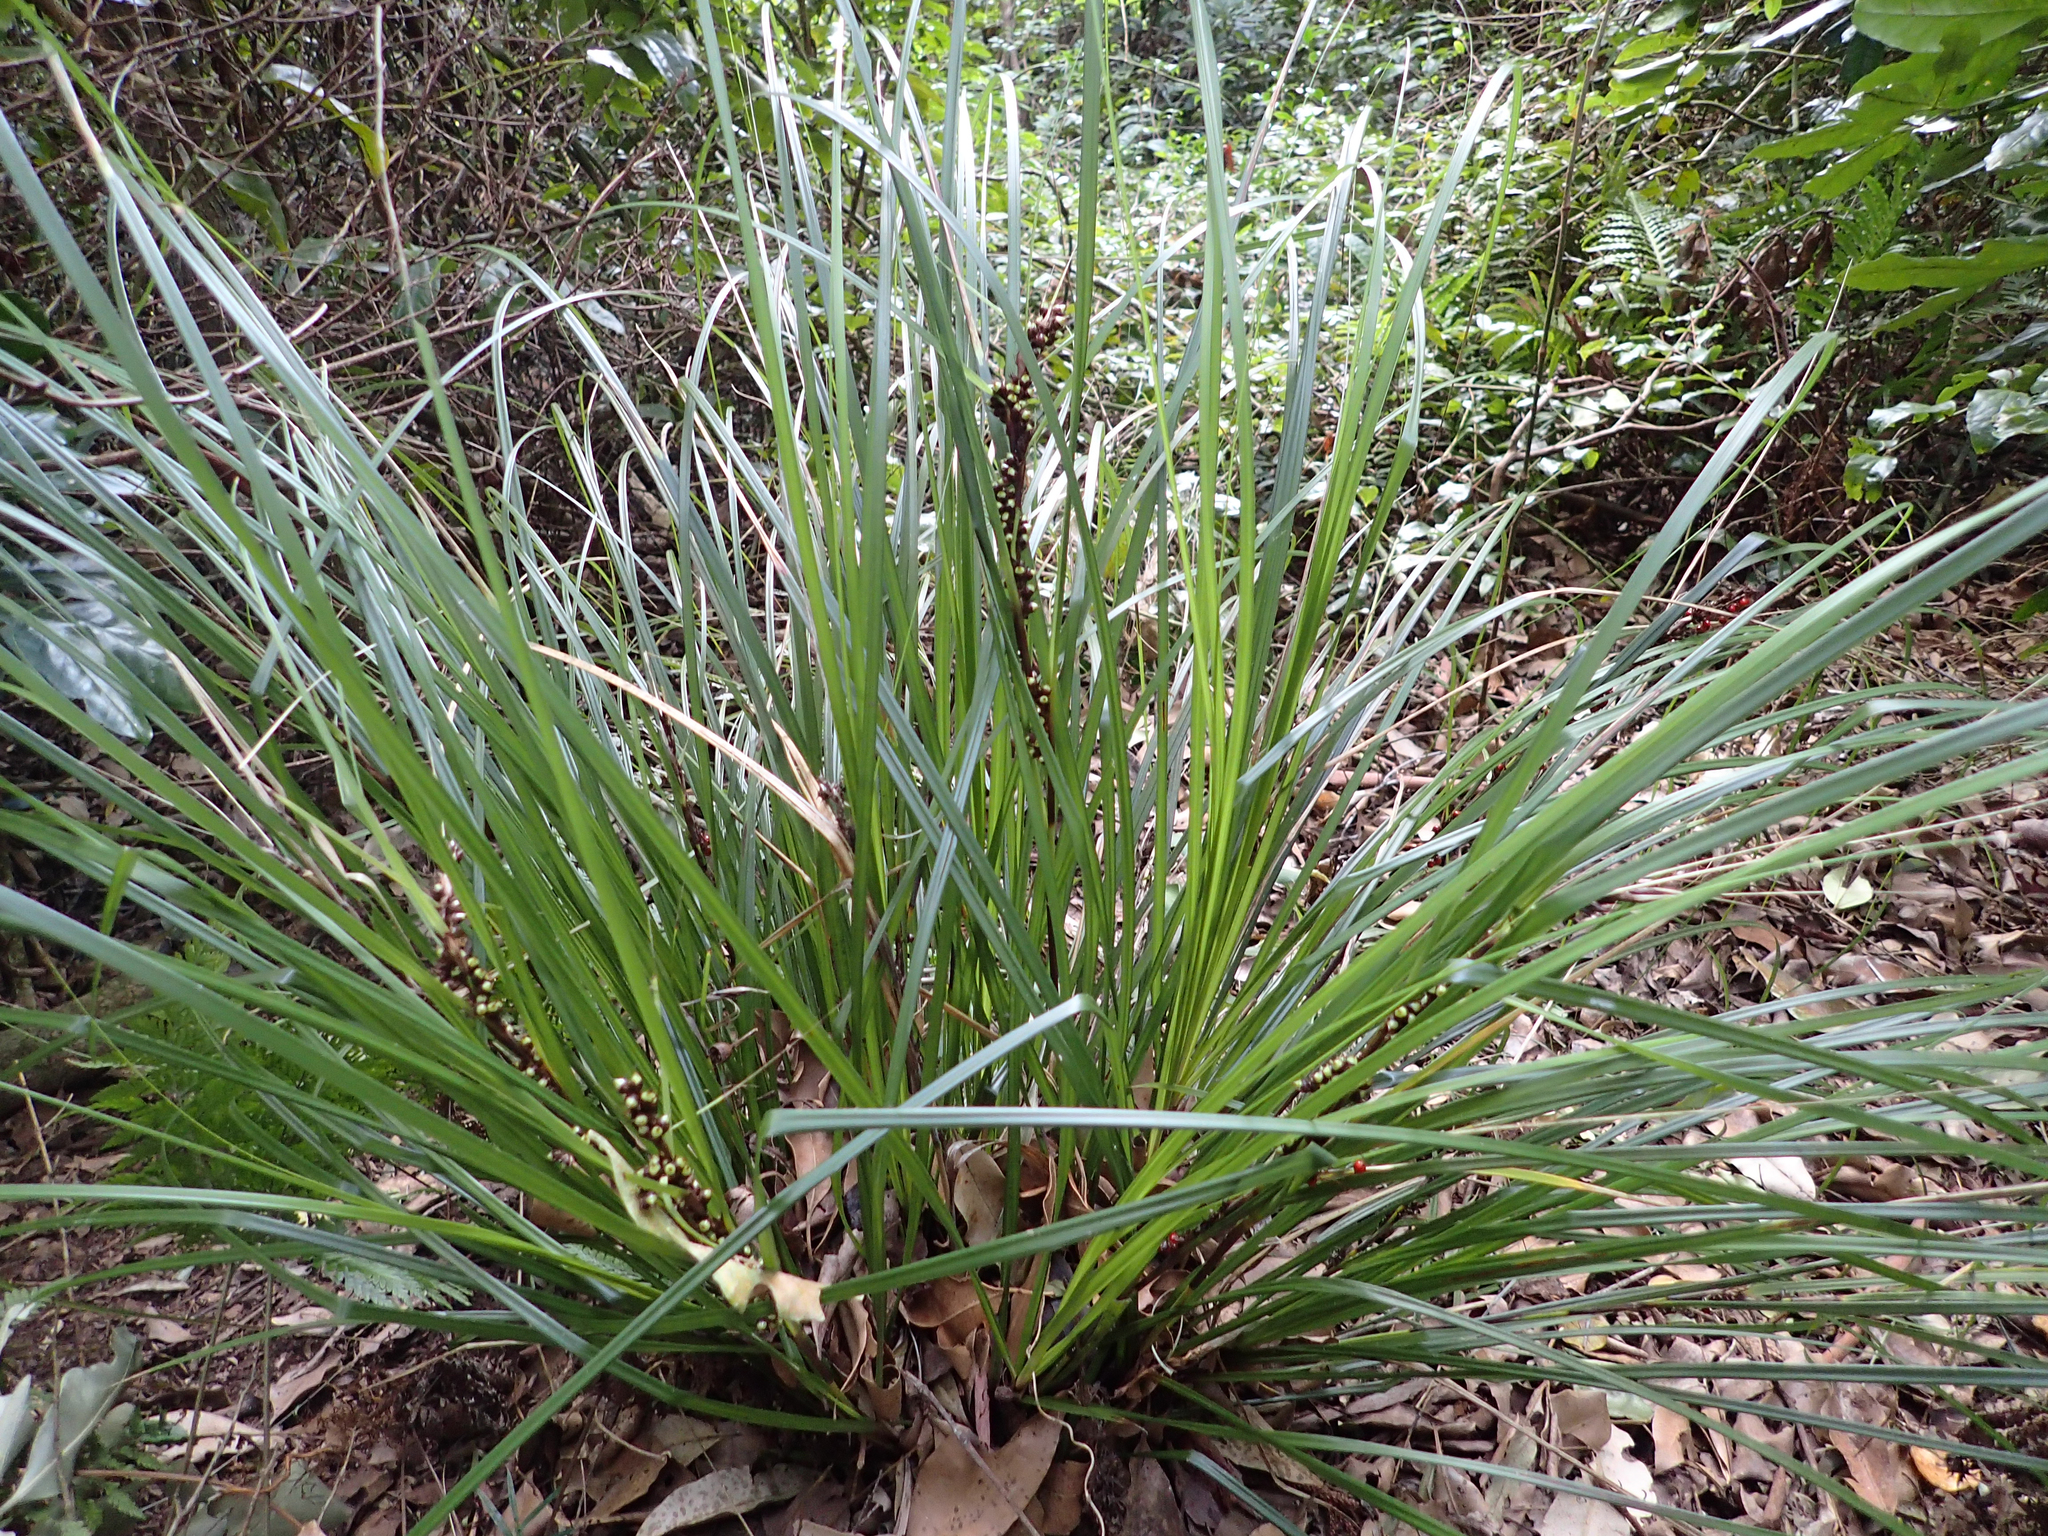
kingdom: Plantae
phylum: Tracheophyta
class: Liliopsida
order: Commelinales
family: Philydraceae
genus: Helmholtzia
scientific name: Helmholtzia glaberrima
